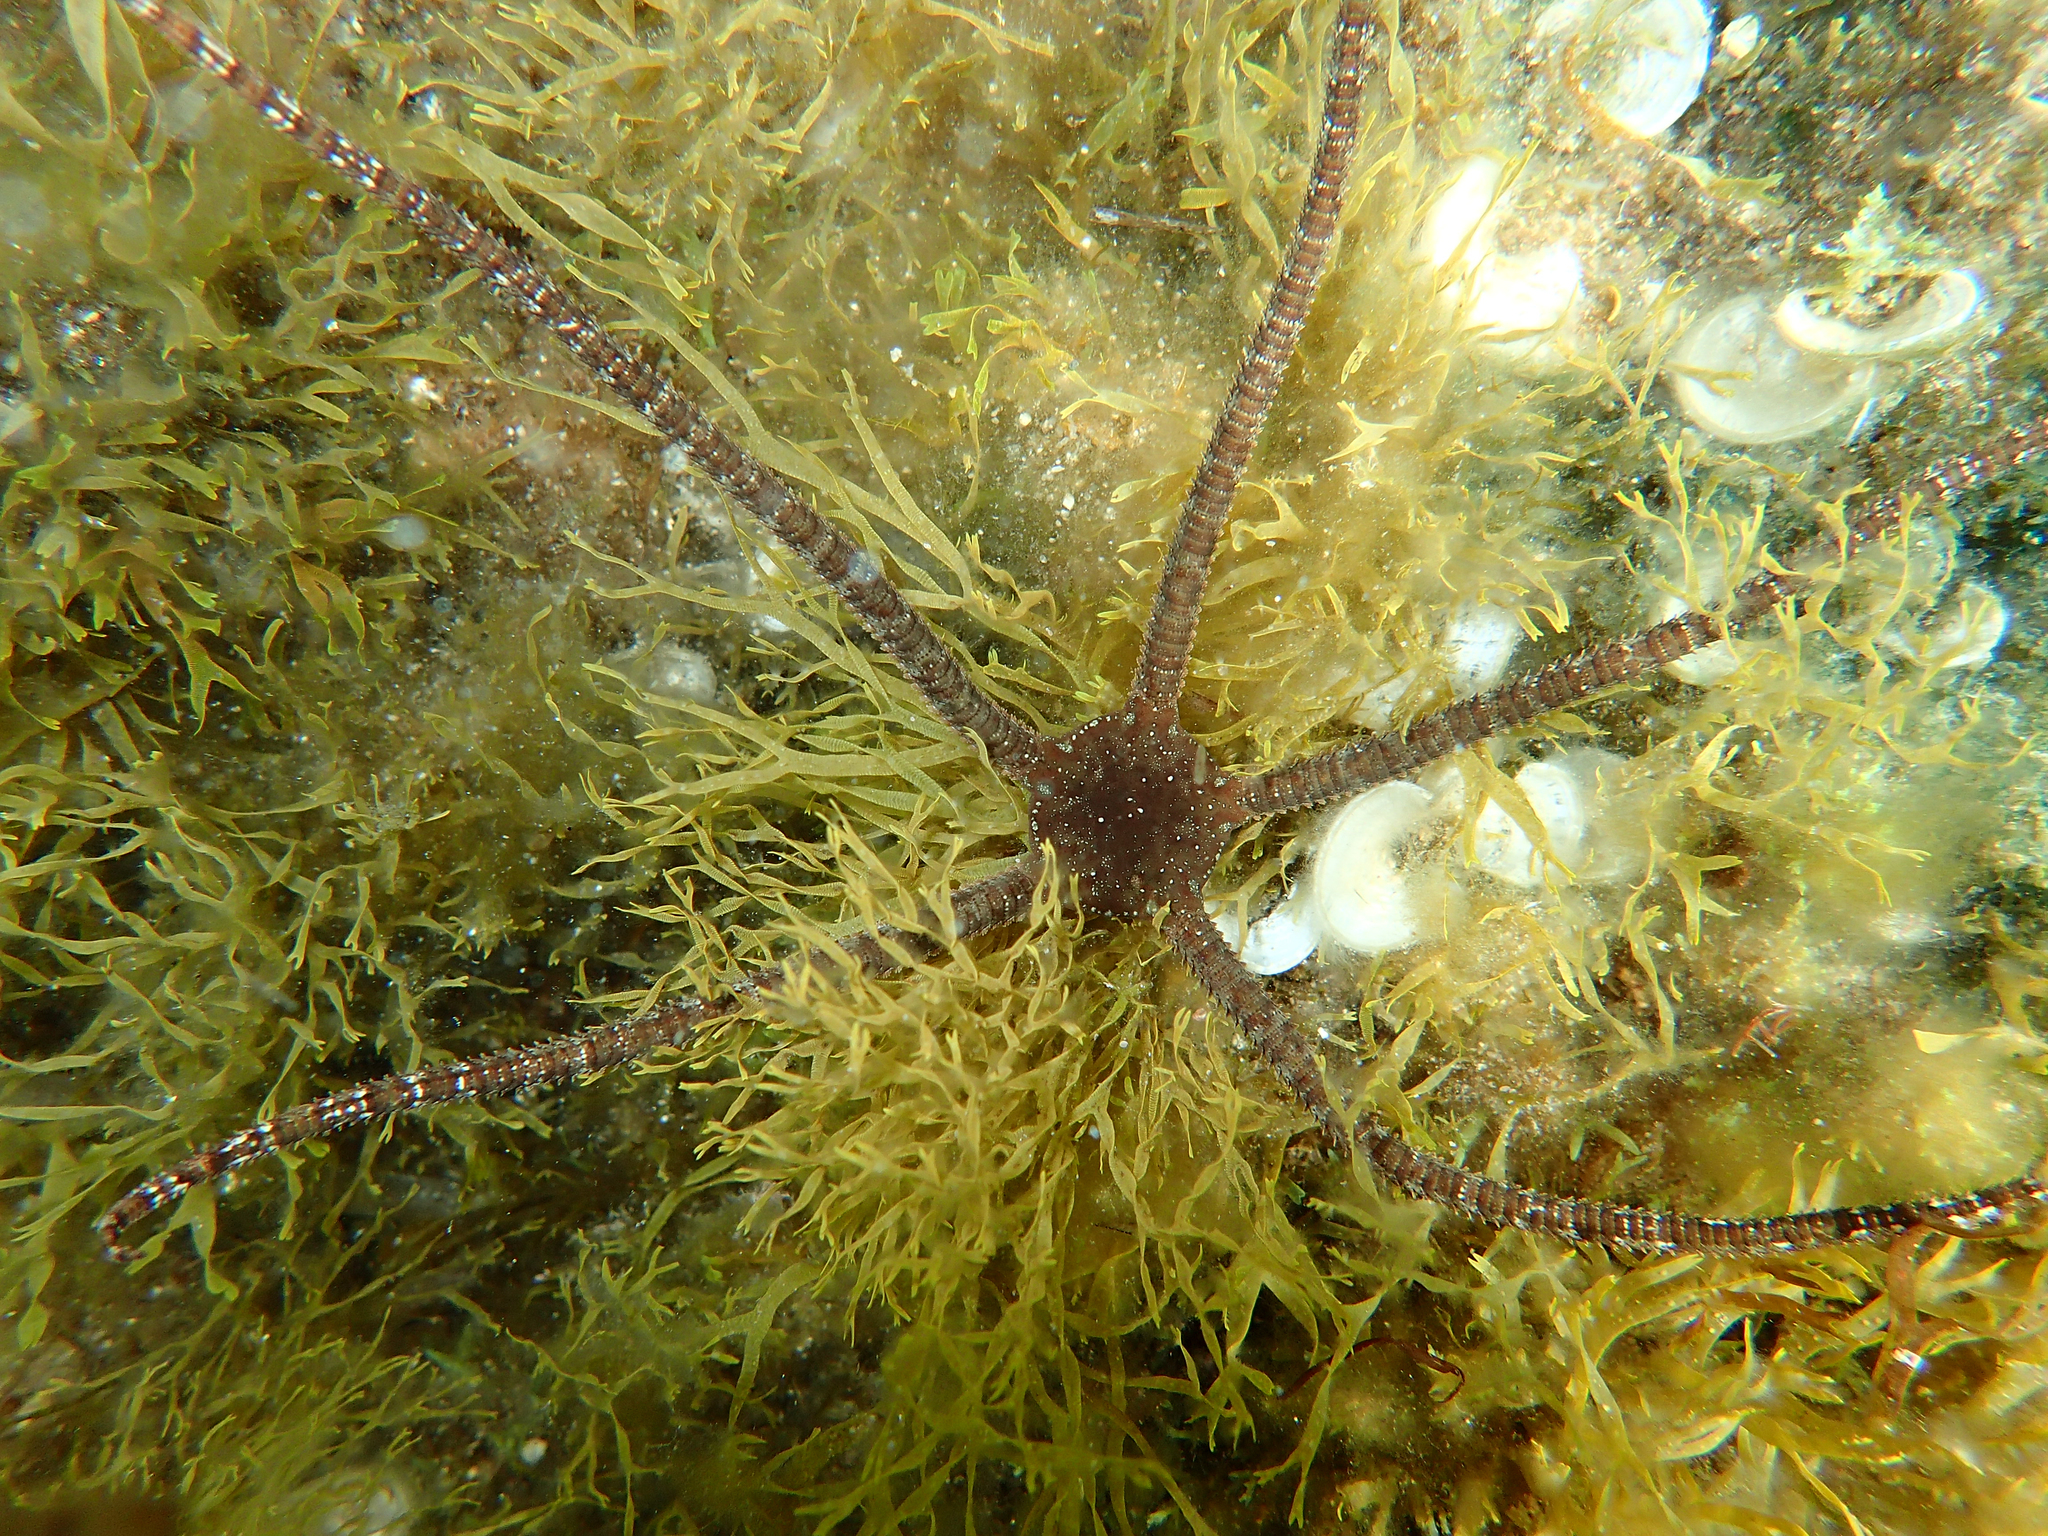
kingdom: Animalia
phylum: Echinodermata
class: Ophiuroidea
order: Ophiacanthida
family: Ophiodermatidae
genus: Ophioderma
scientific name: Ophioderma longicaudum
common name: Smooth brittle-star
